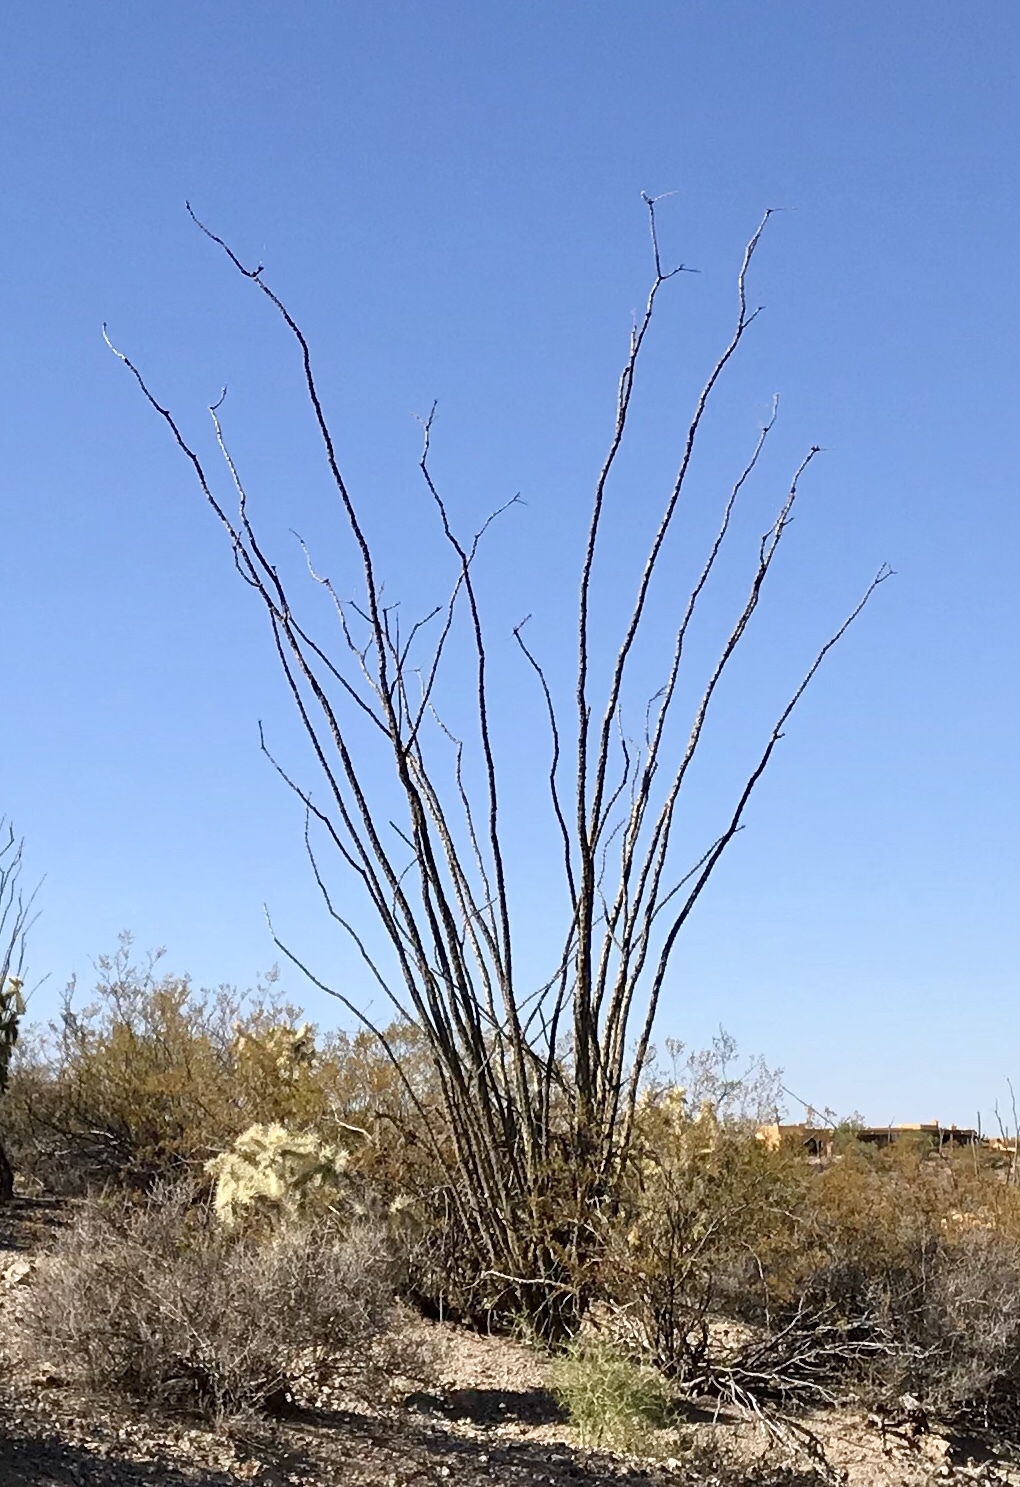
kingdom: Plantae
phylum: Tracheophyta
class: Magnoliopsida
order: Ericales
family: Fouquieriaceae
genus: Fouquieria
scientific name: Fouquieria splendens
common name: Vine-cactus
